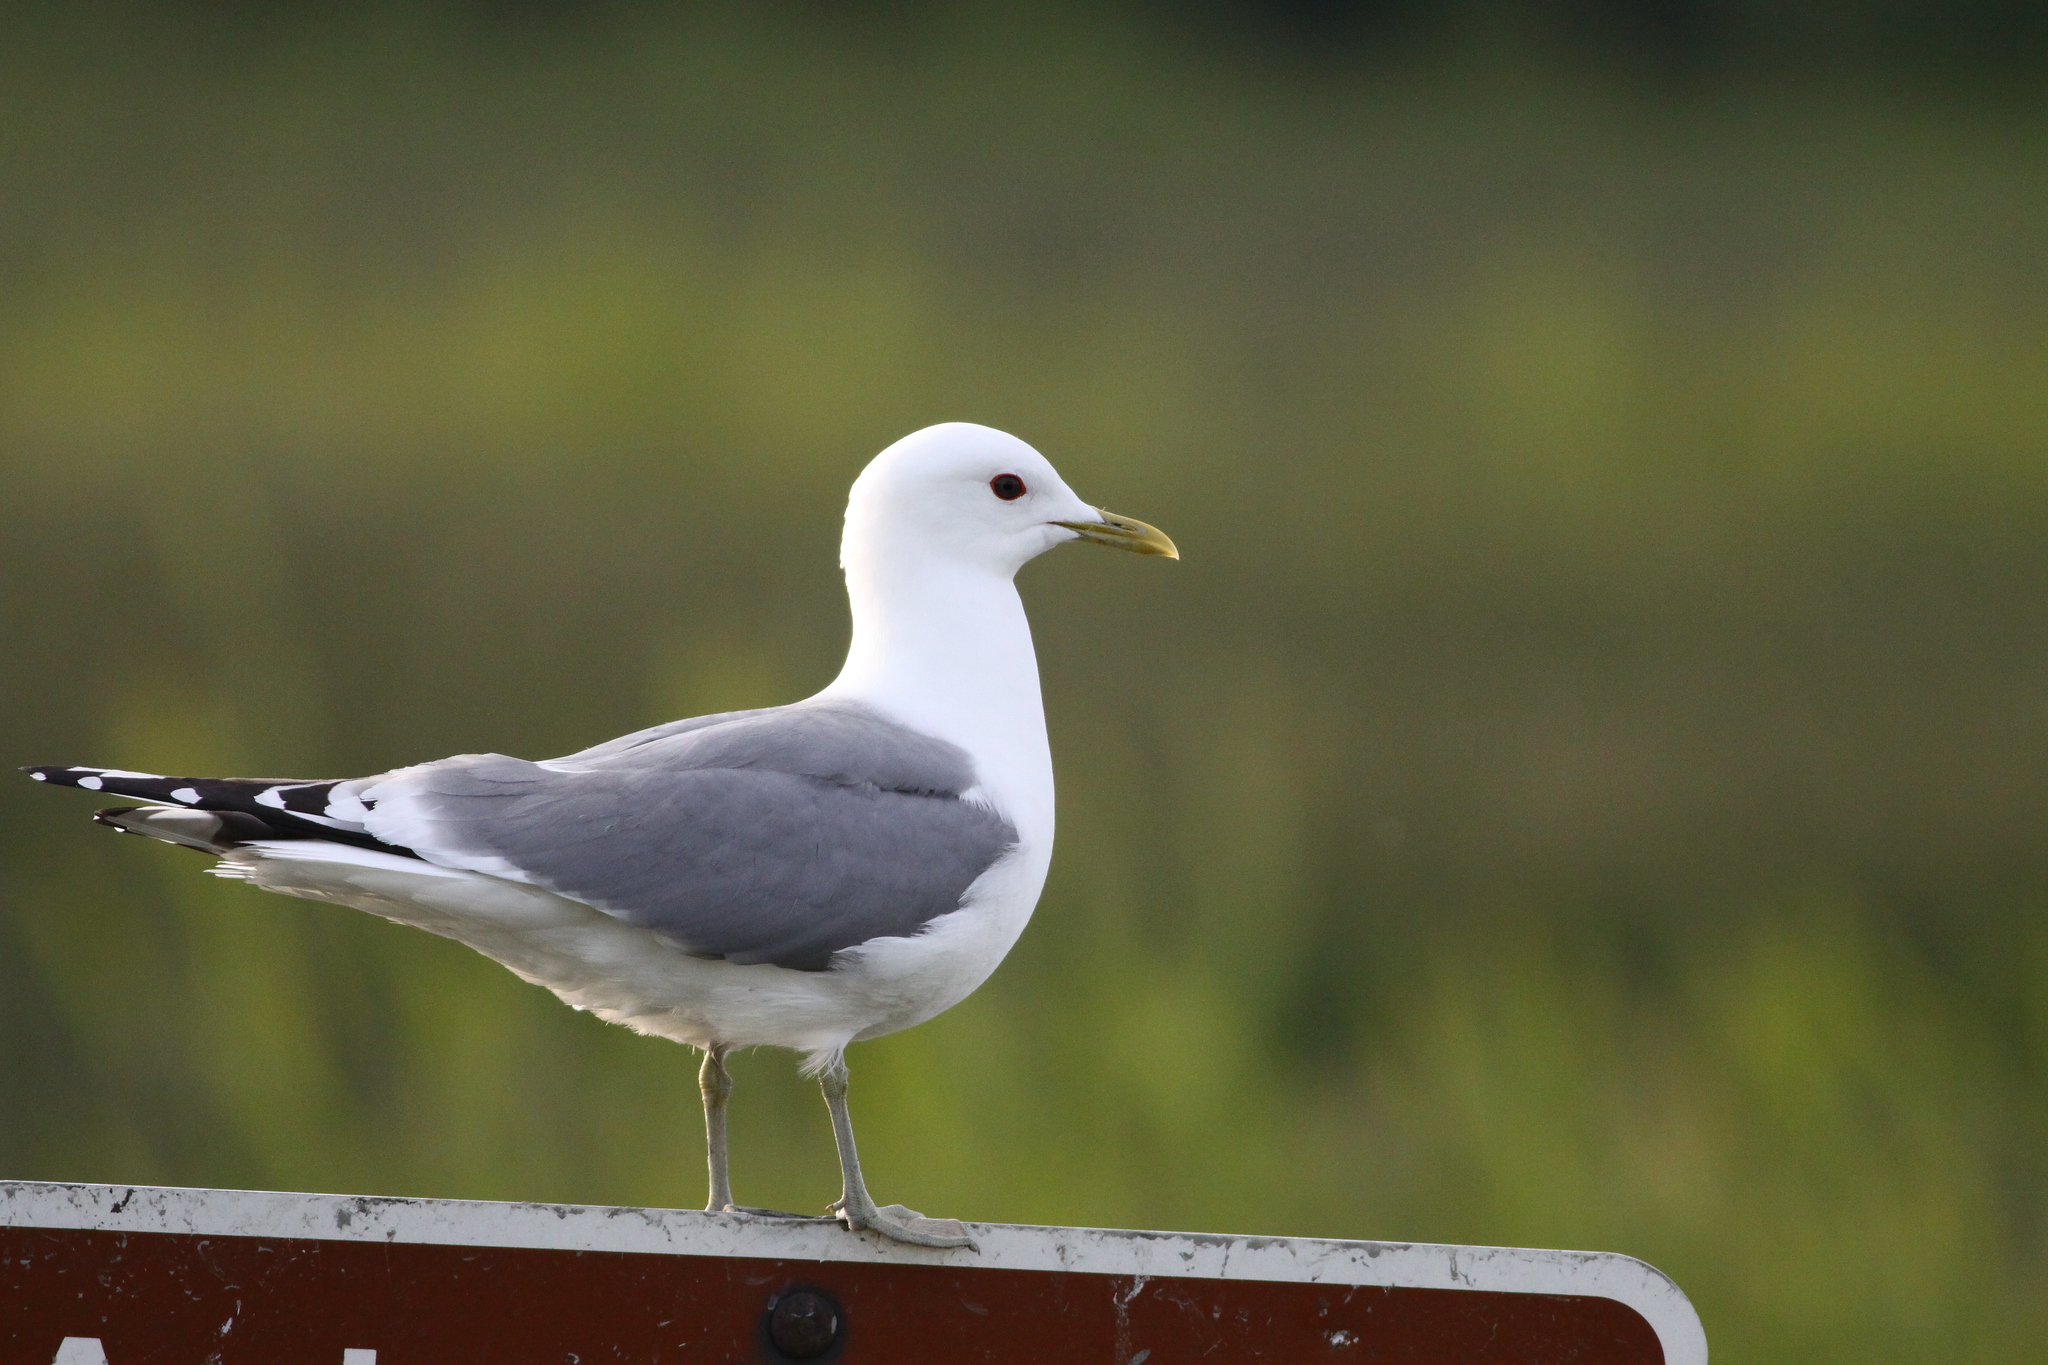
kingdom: Animalia
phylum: Chordata
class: Aves
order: Charadriiformes
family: Laridae
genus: Larus
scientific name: Larus brachyrhynchus
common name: Short-billed gull
